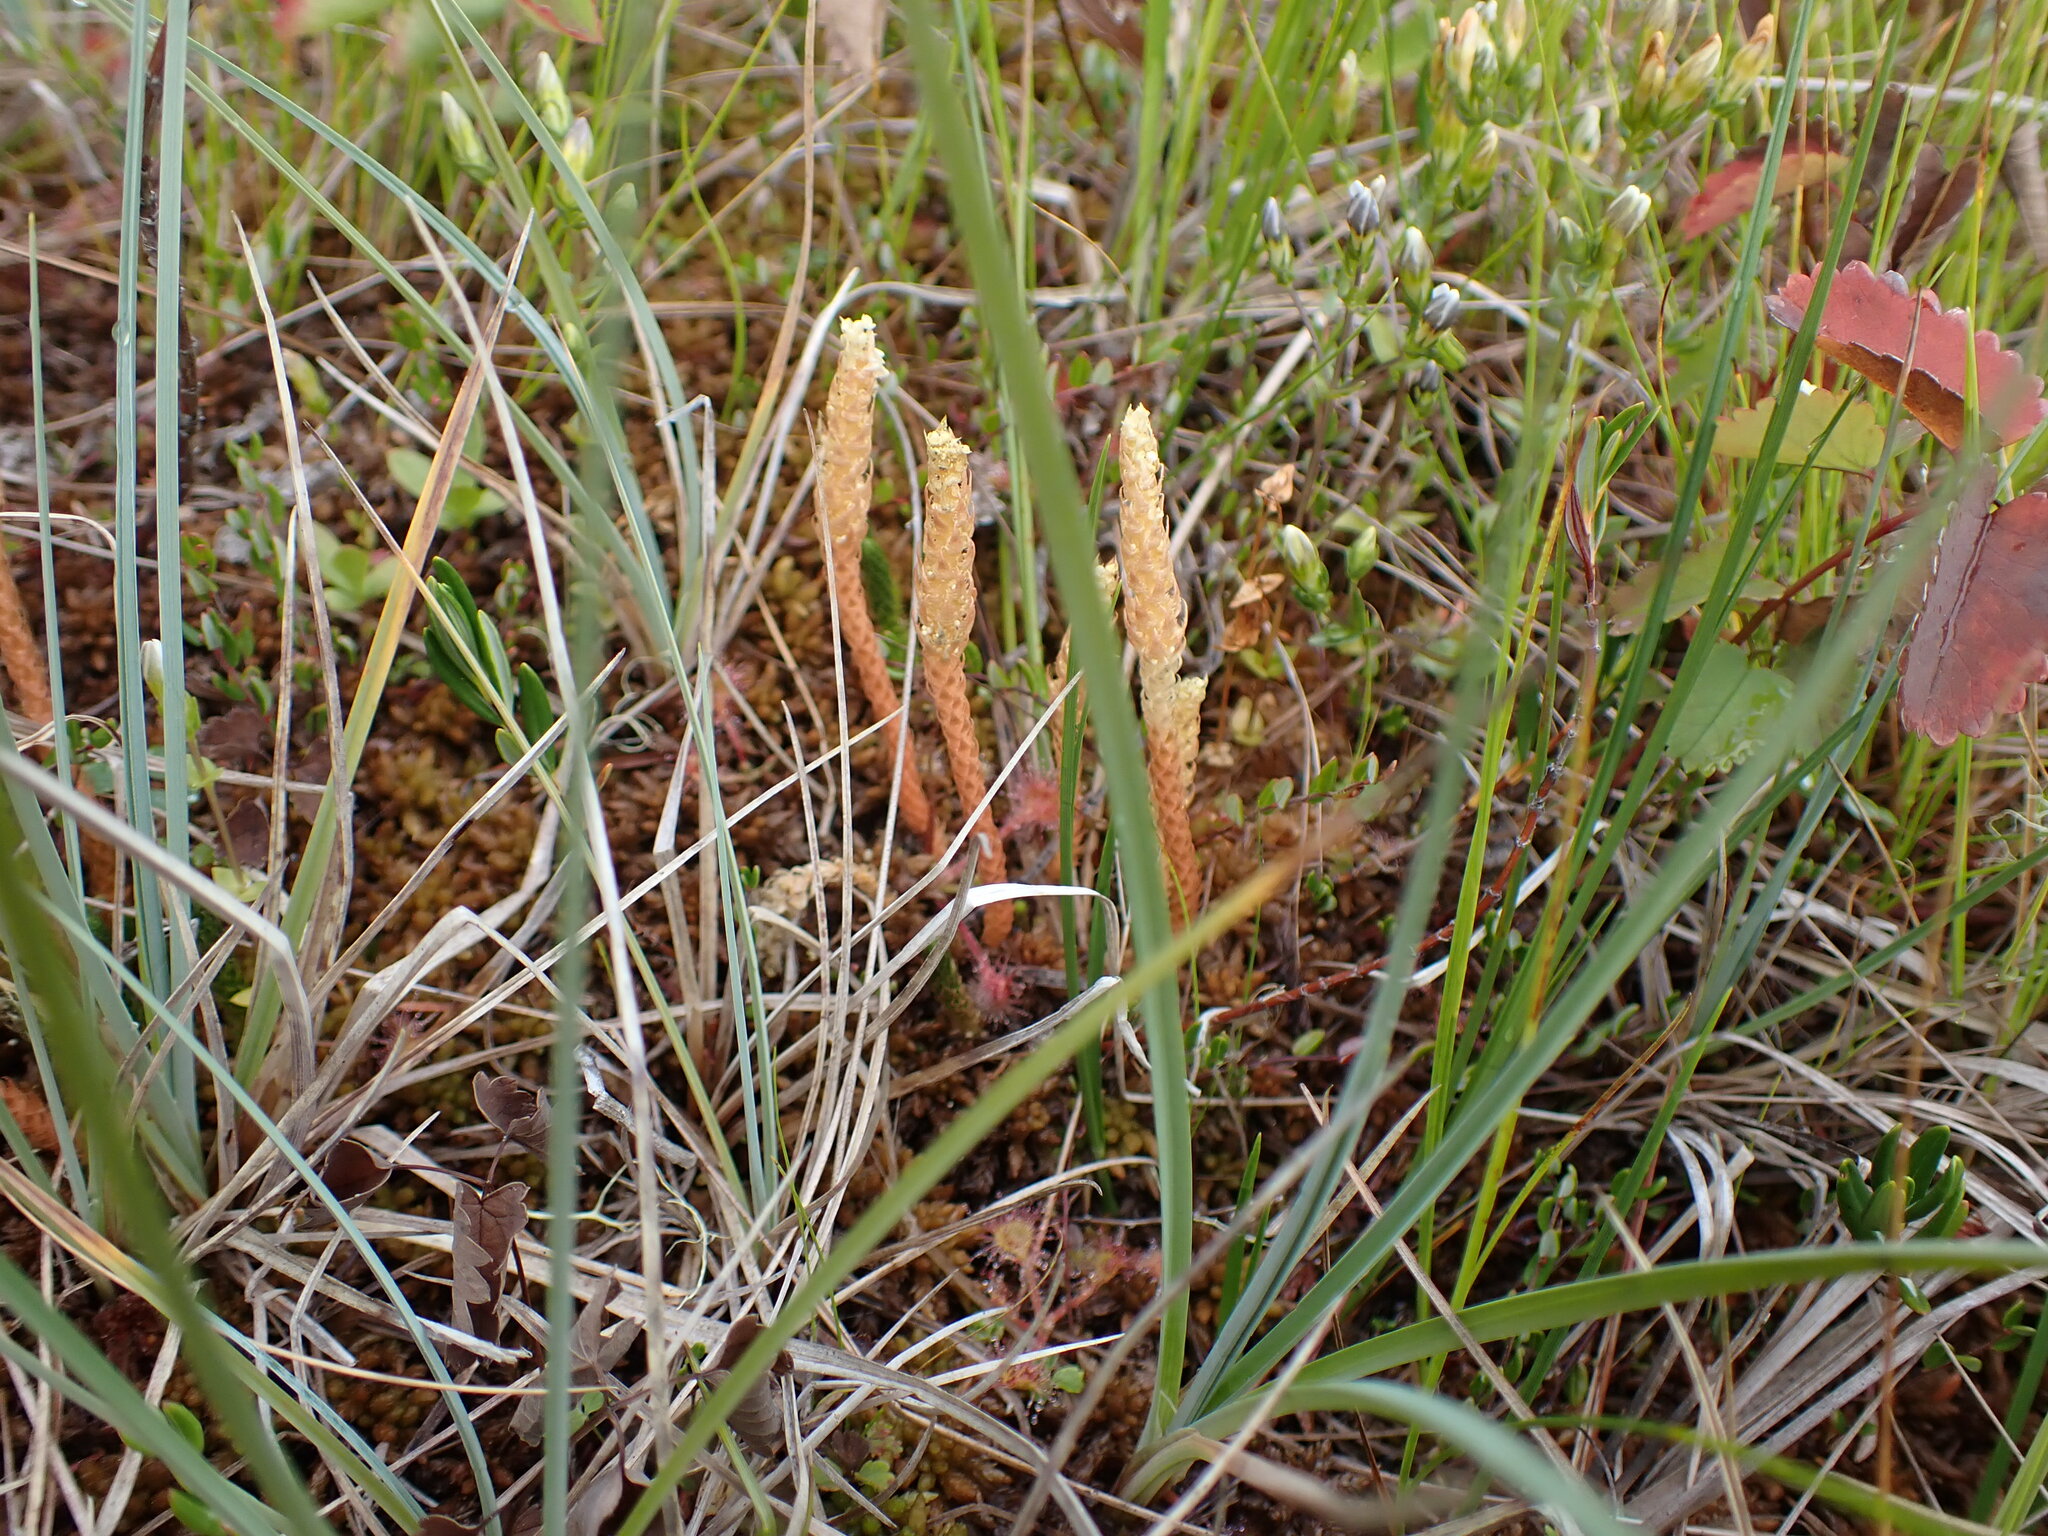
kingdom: Plantae
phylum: Tracheophyta
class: Lycopodiopsida
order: Selaginellales
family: Selaginellaceae
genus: Selaginella
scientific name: Selaginella selaginoides
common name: Prickly mountain-moss
